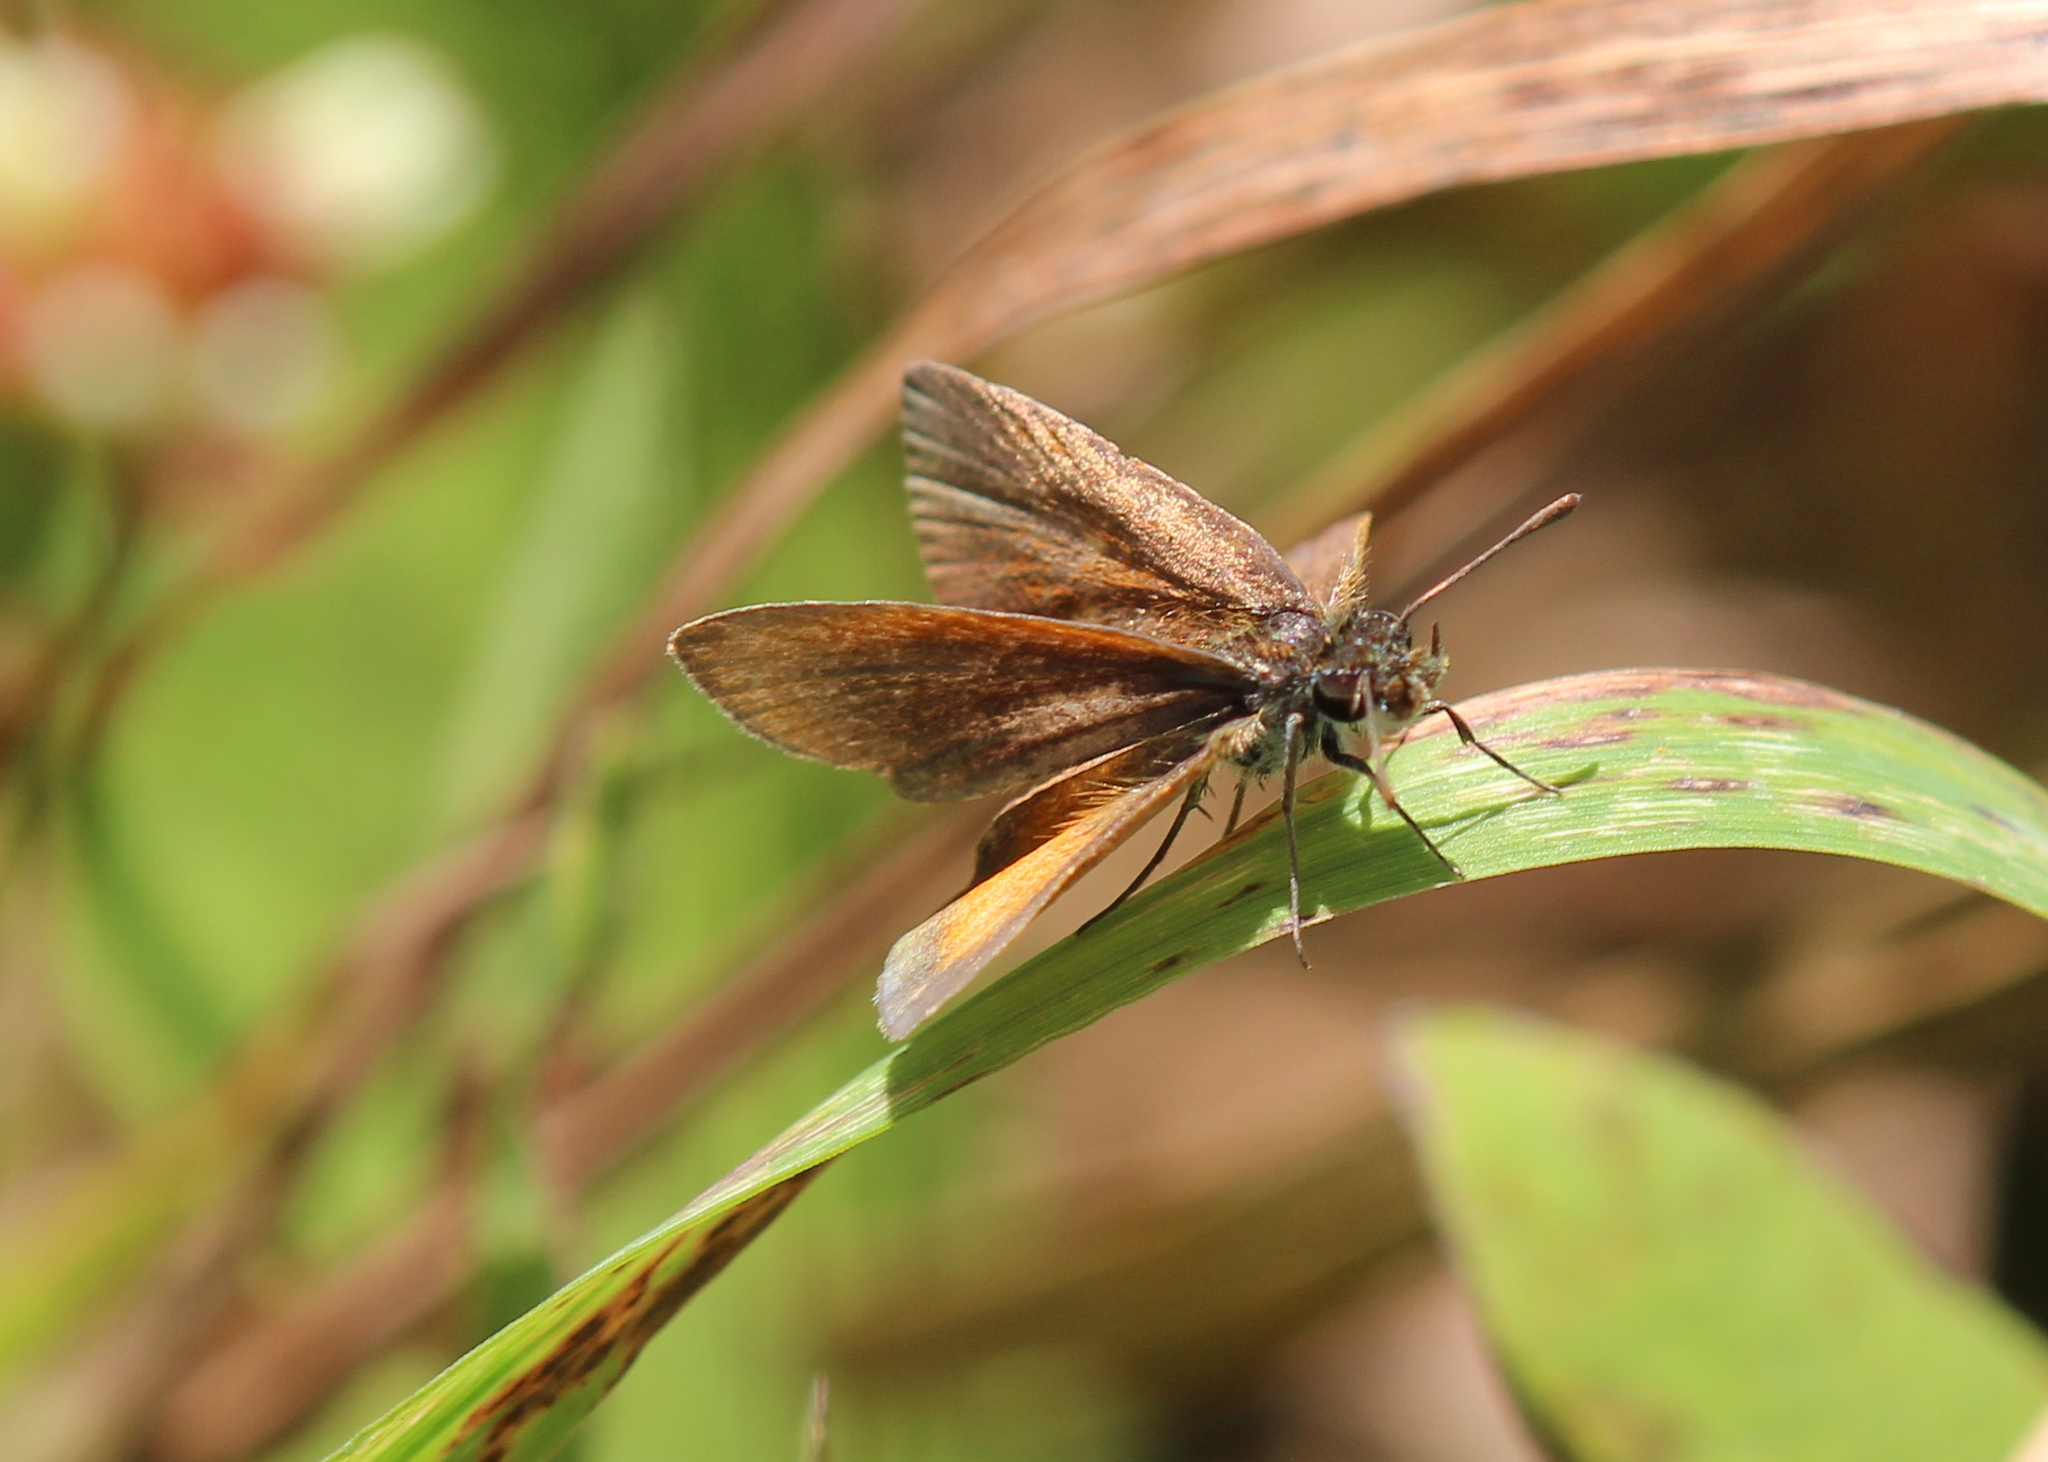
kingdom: Animalia
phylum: Arthropoda
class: Insecta
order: Lepidoptera
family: Hesperiidae
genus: Ancyloxypha
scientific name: Ancyloxypha numitor
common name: Least skipper
